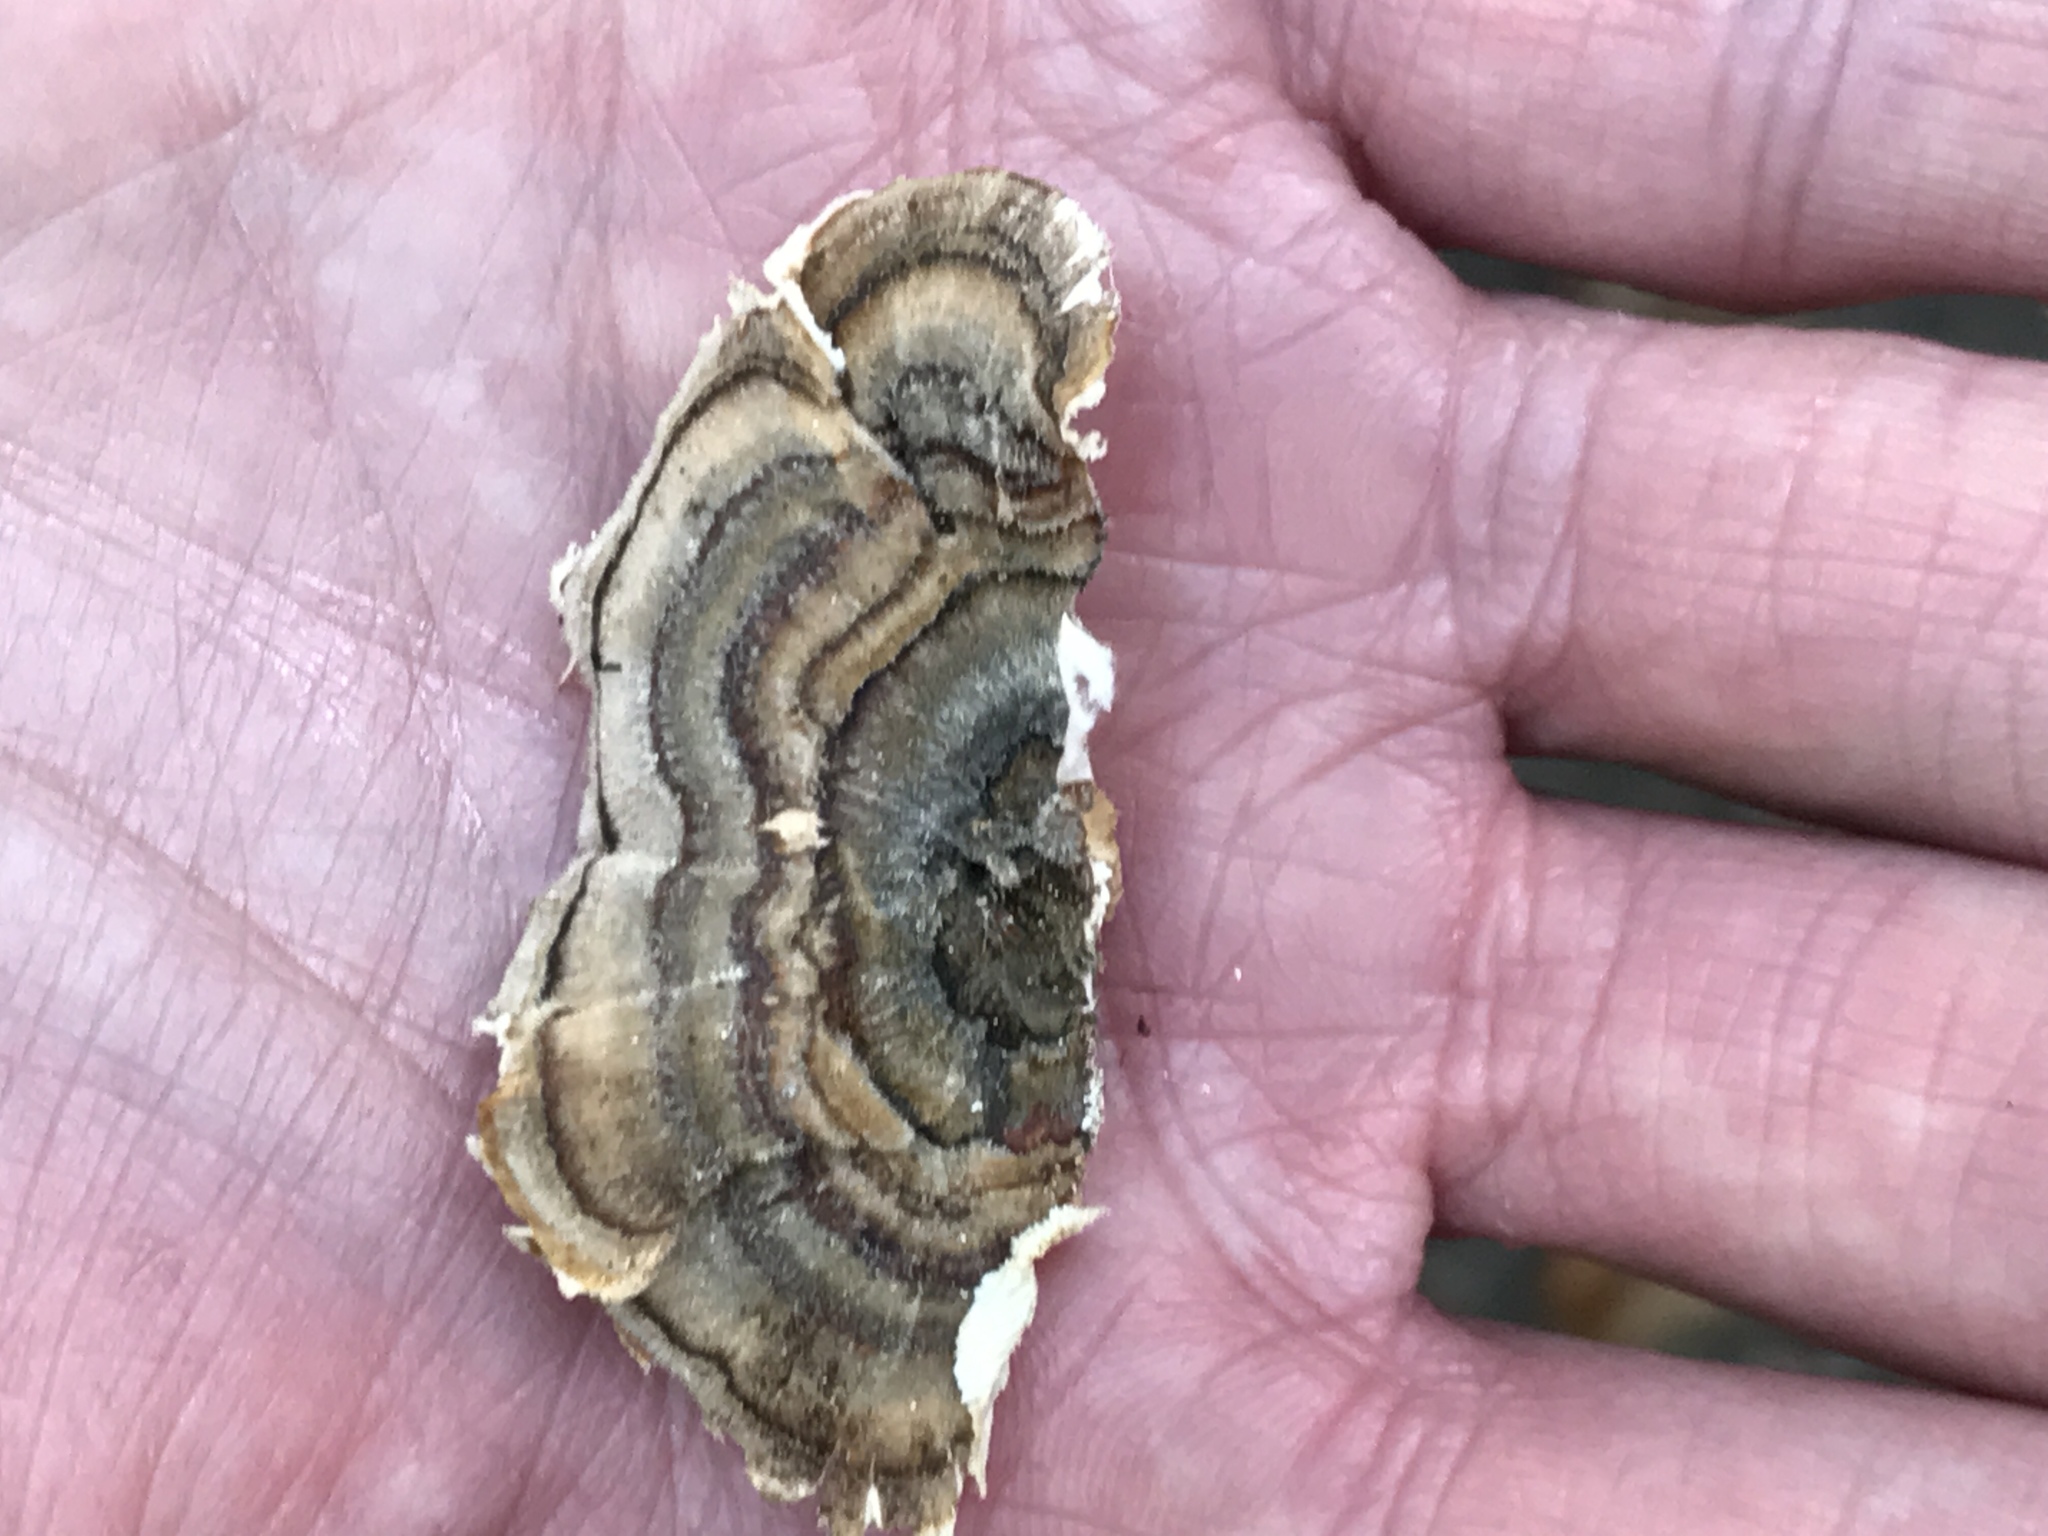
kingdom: Fungi
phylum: Basidiomycota
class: Agaricomycetes
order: Polyporales
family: Polyporaceae
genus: Trametes
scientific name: Trametes versicolor
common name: Turkeytail
